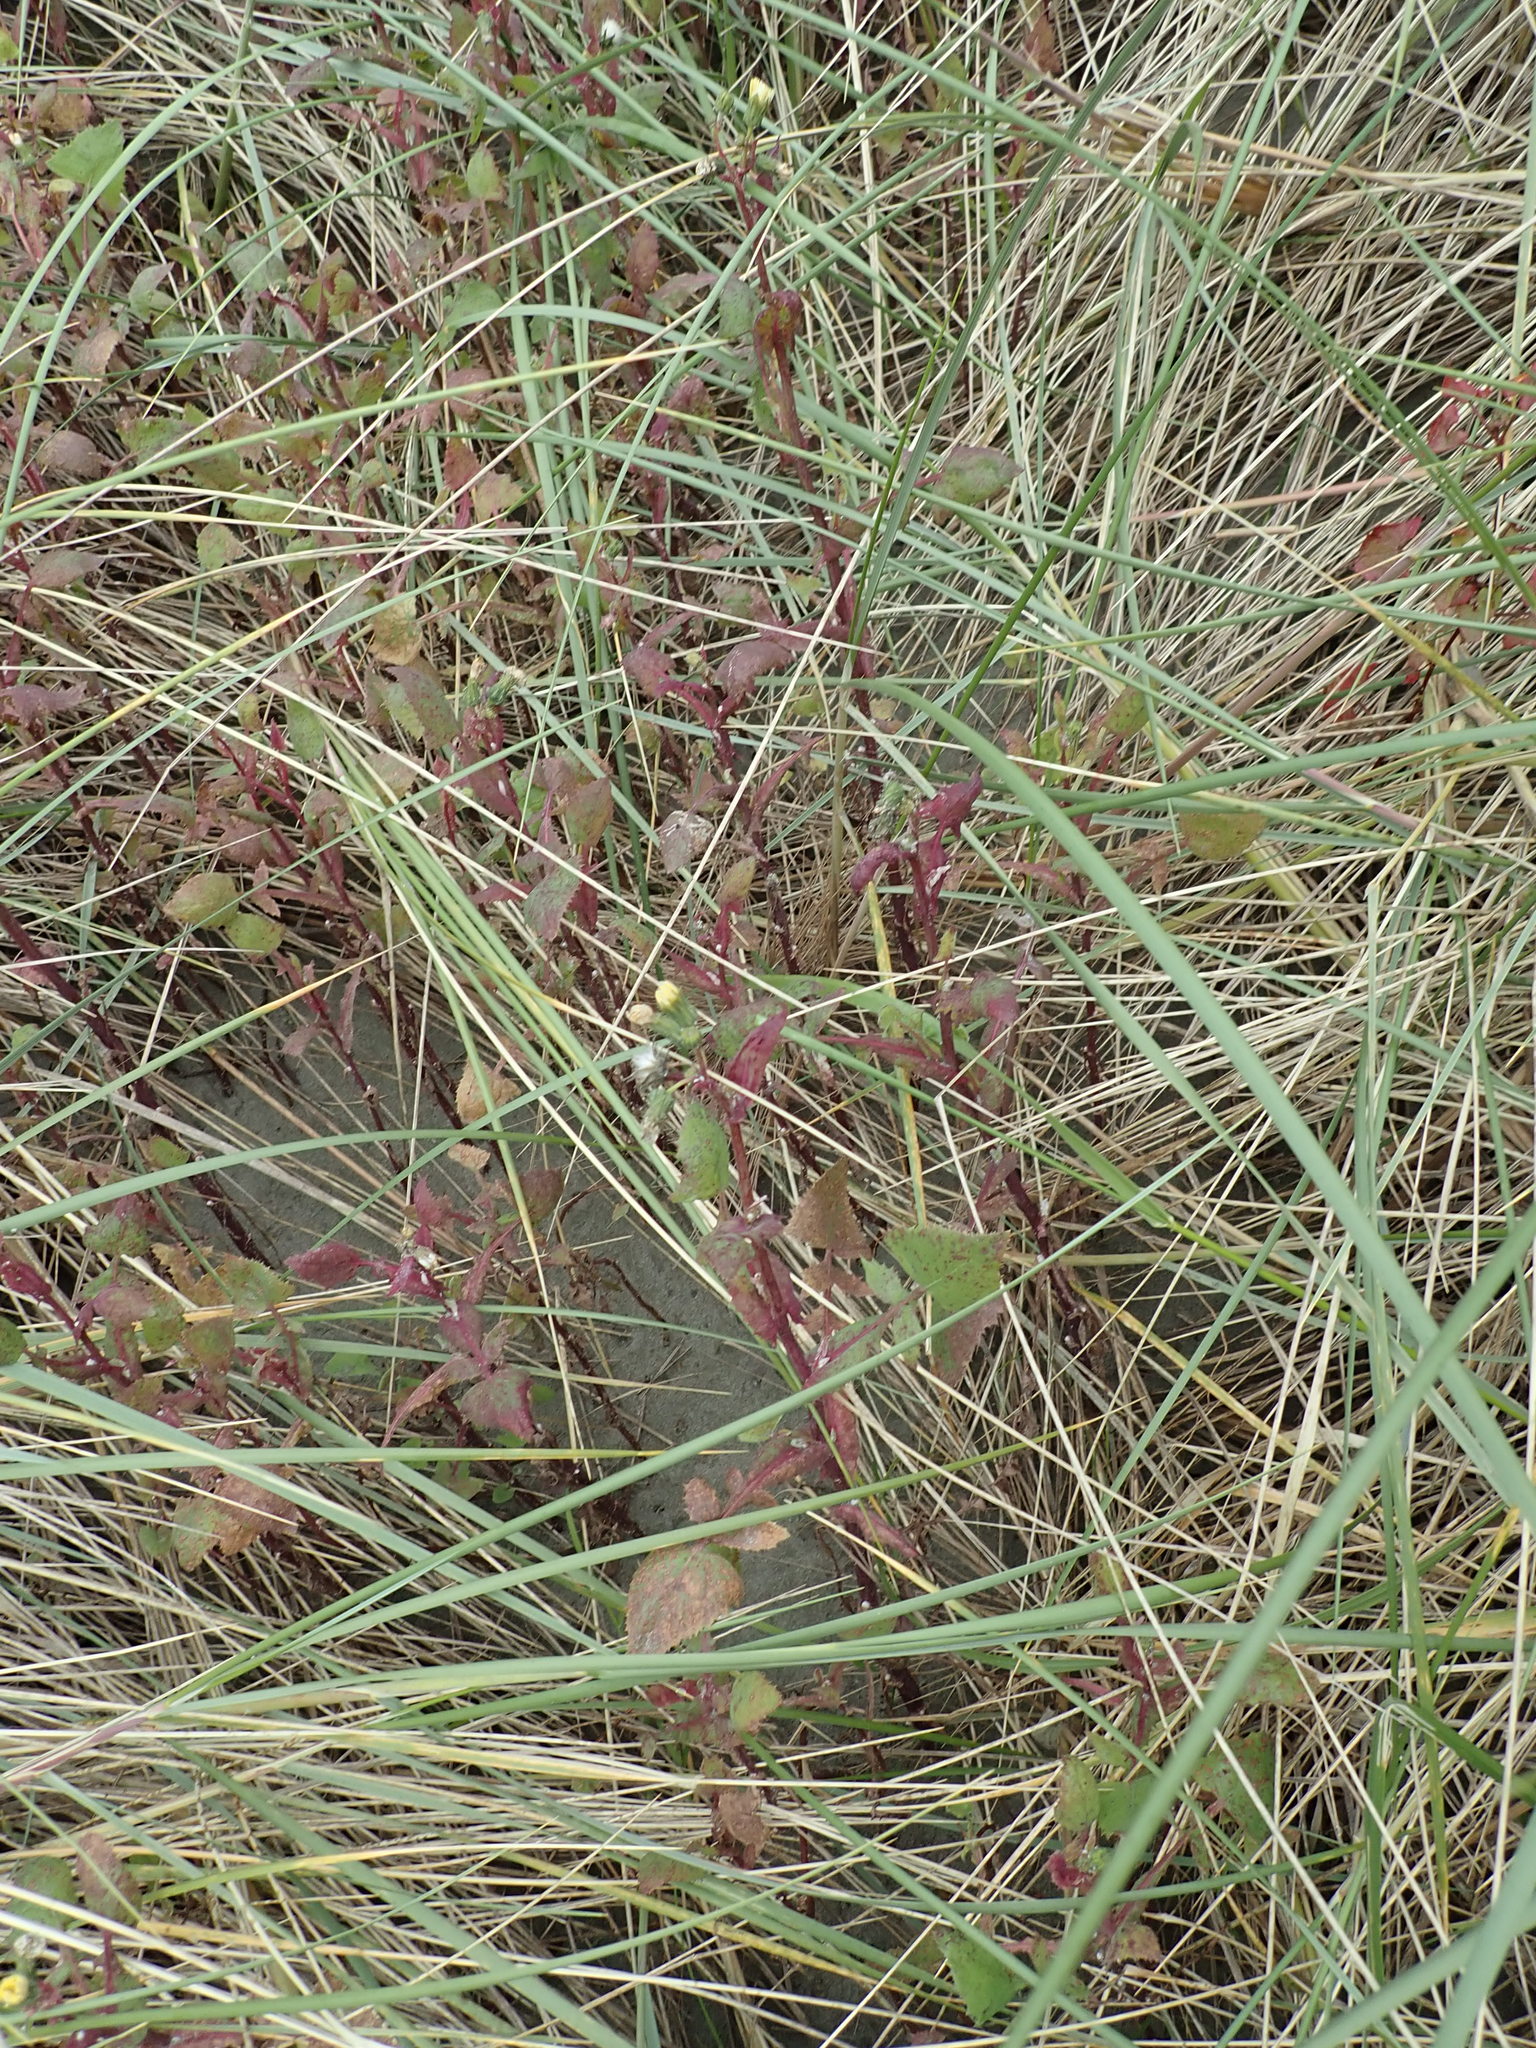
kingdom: Plantae
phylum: Tracheophyta
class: Magnoliopsida
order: Asterales
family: Asteraceae
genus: Sonchus
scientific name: Sonchus oleraceus
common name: Common sowthistle
